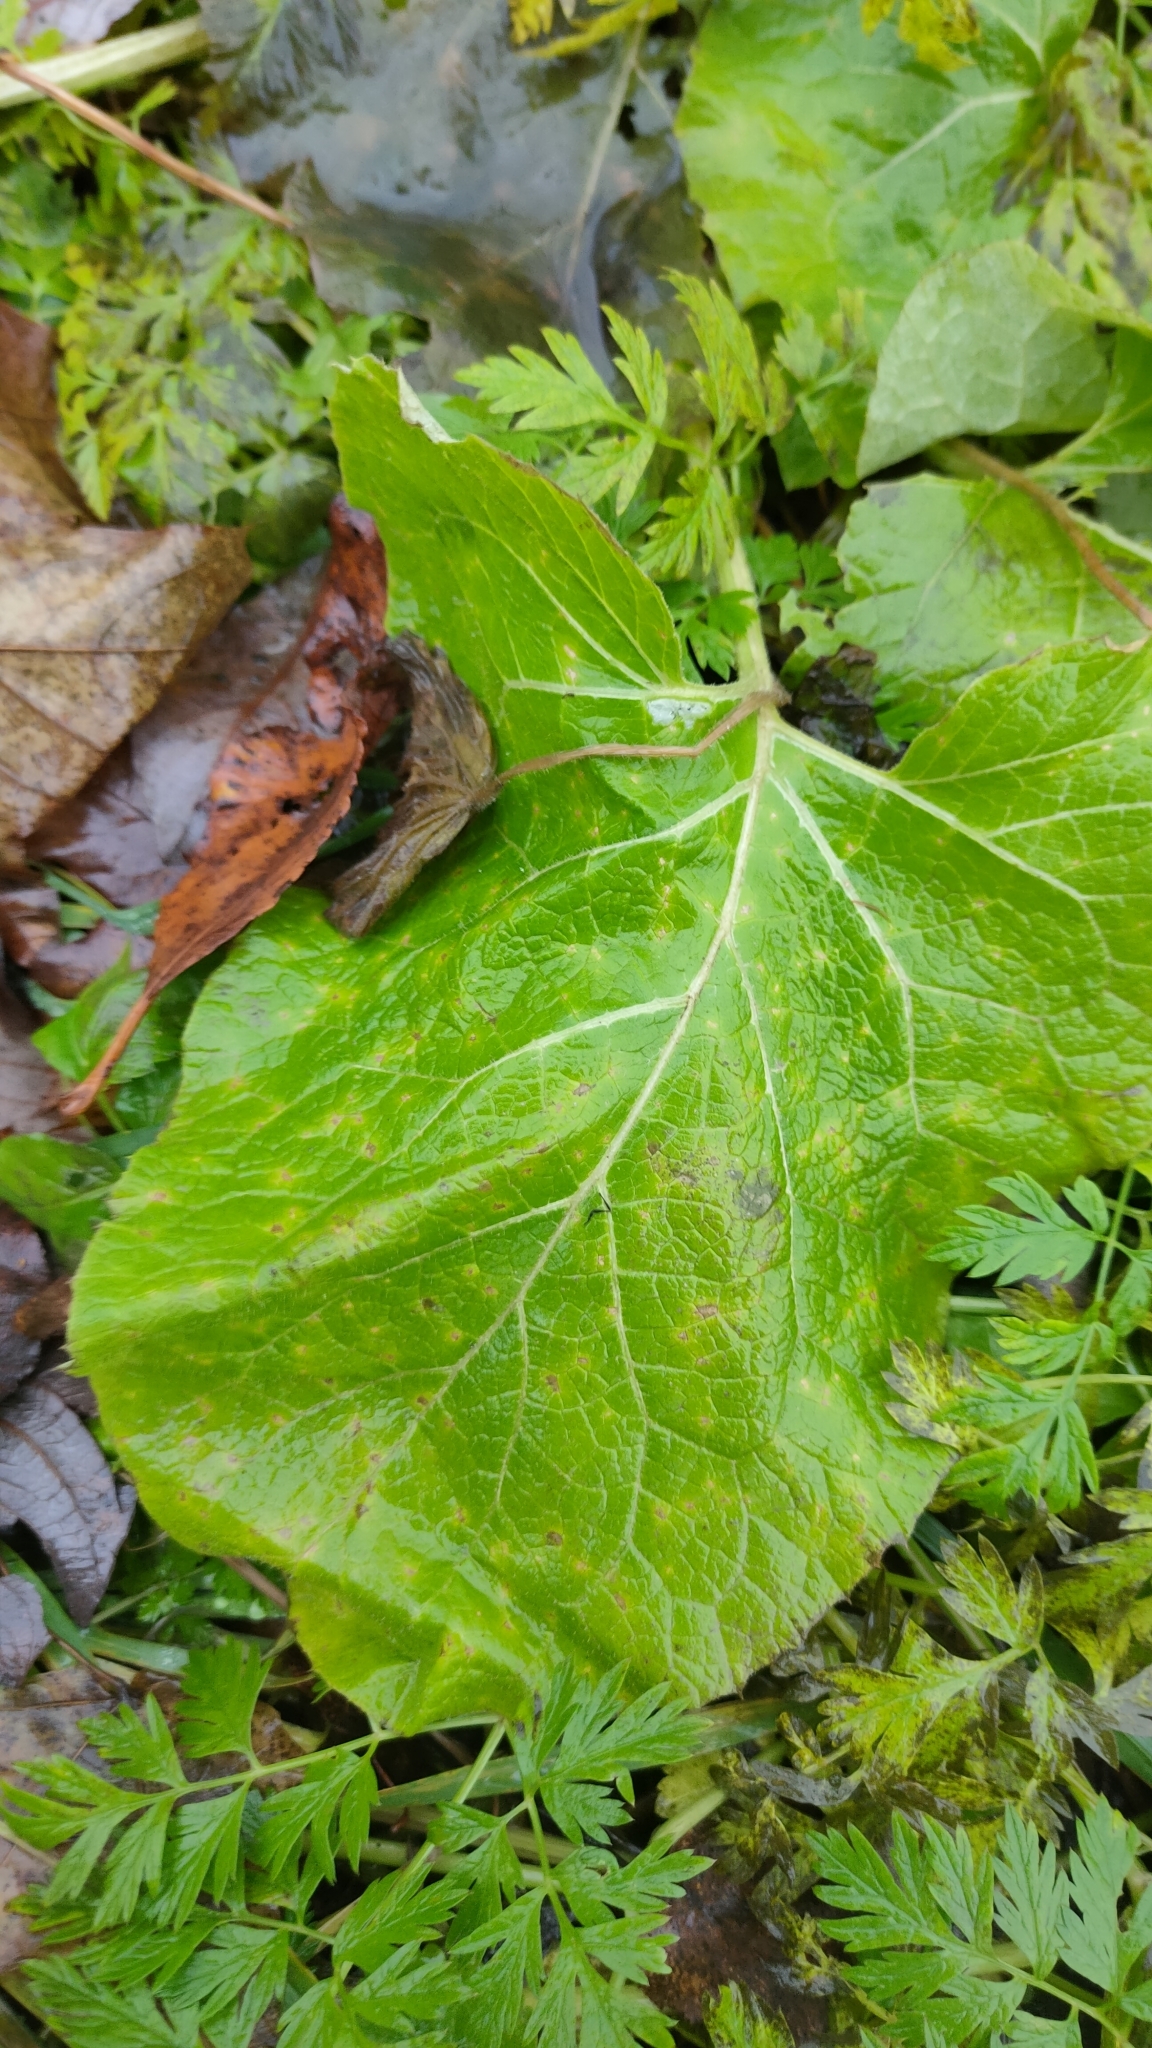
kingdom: Plantae
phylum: Tracheophyta
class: Magnoliopsida
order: Asterales
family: Asteraceae
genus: Petasites
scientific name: Petasites spurius
